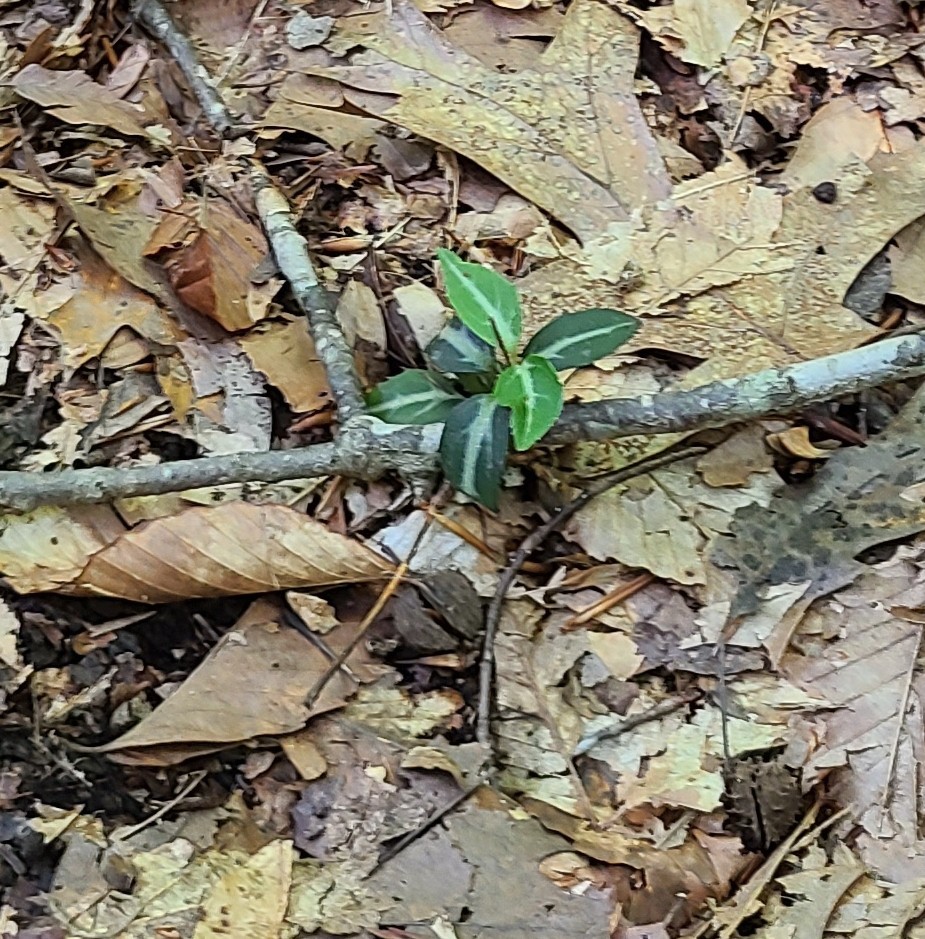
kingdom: Plantae
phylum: Tracheophyta
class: Magnoliopsida
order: Ericales
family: Ericaceae
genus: Chimaphila
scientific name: Chimaphila maculata
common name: Spotted pipsissewa
